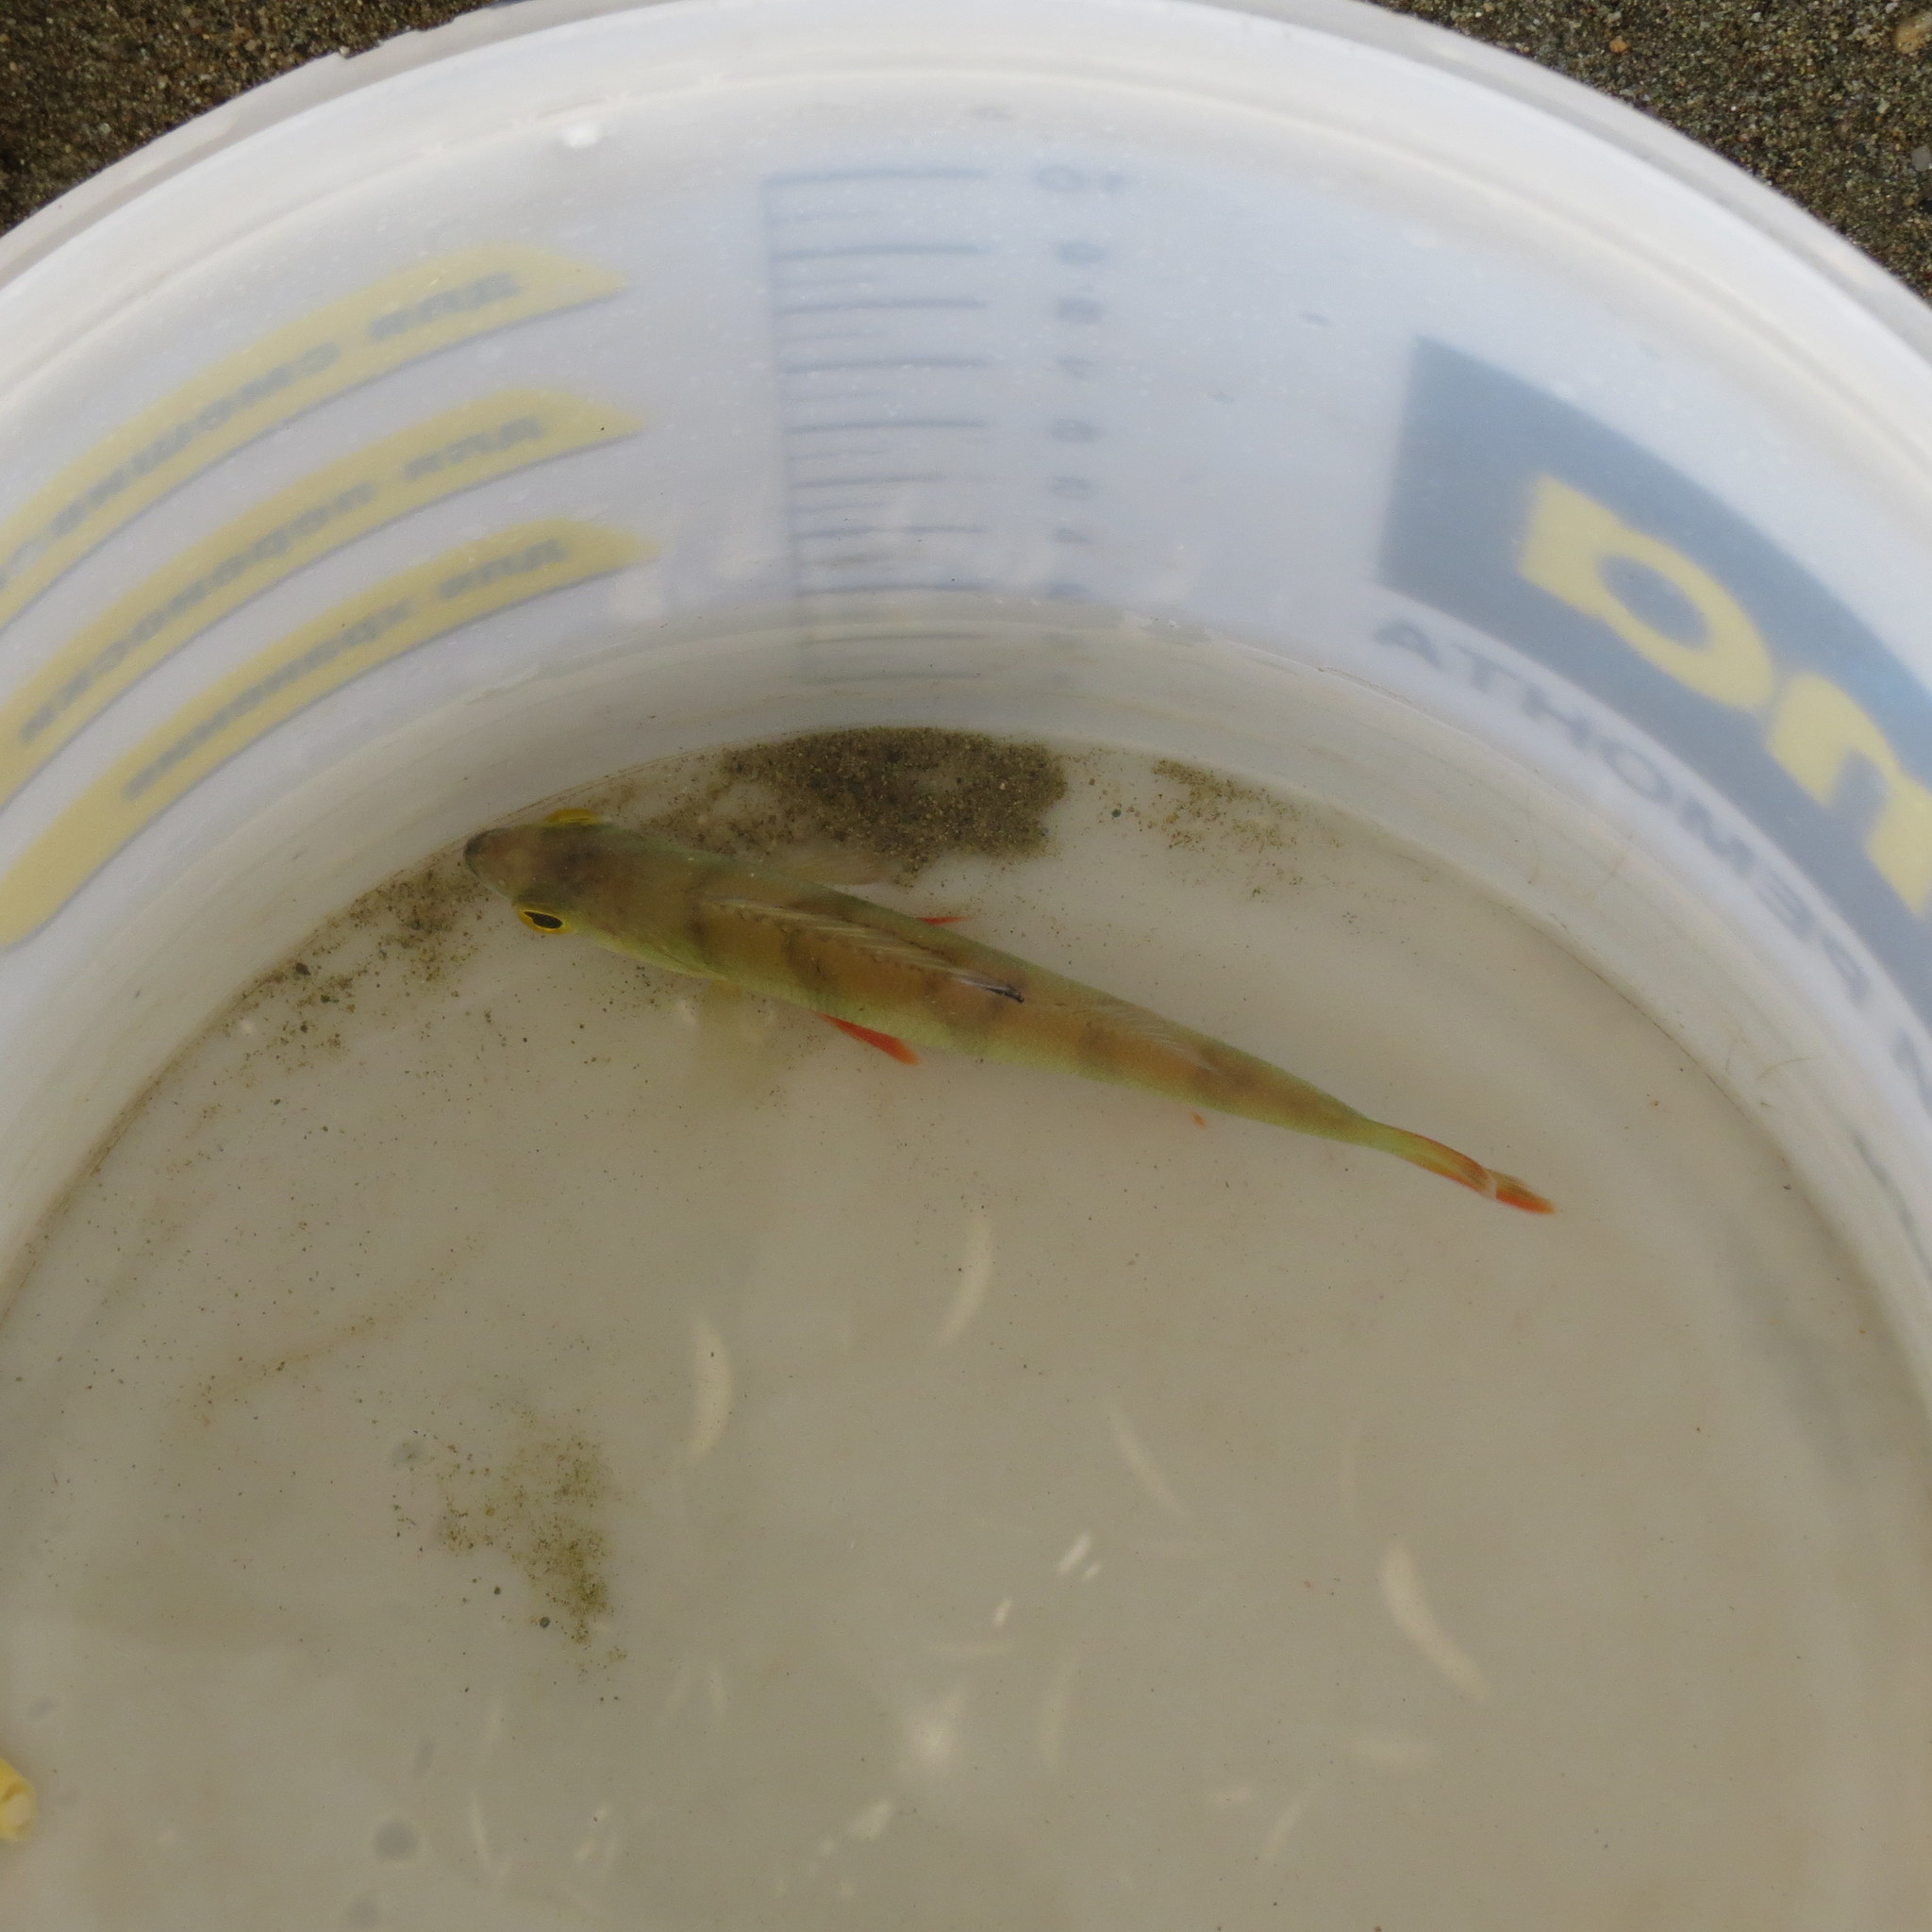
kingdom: Animalia
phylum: Chordata
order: Perciformes
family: Percidae
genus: Perca
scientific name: Perca fluviatilis
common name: Perch
